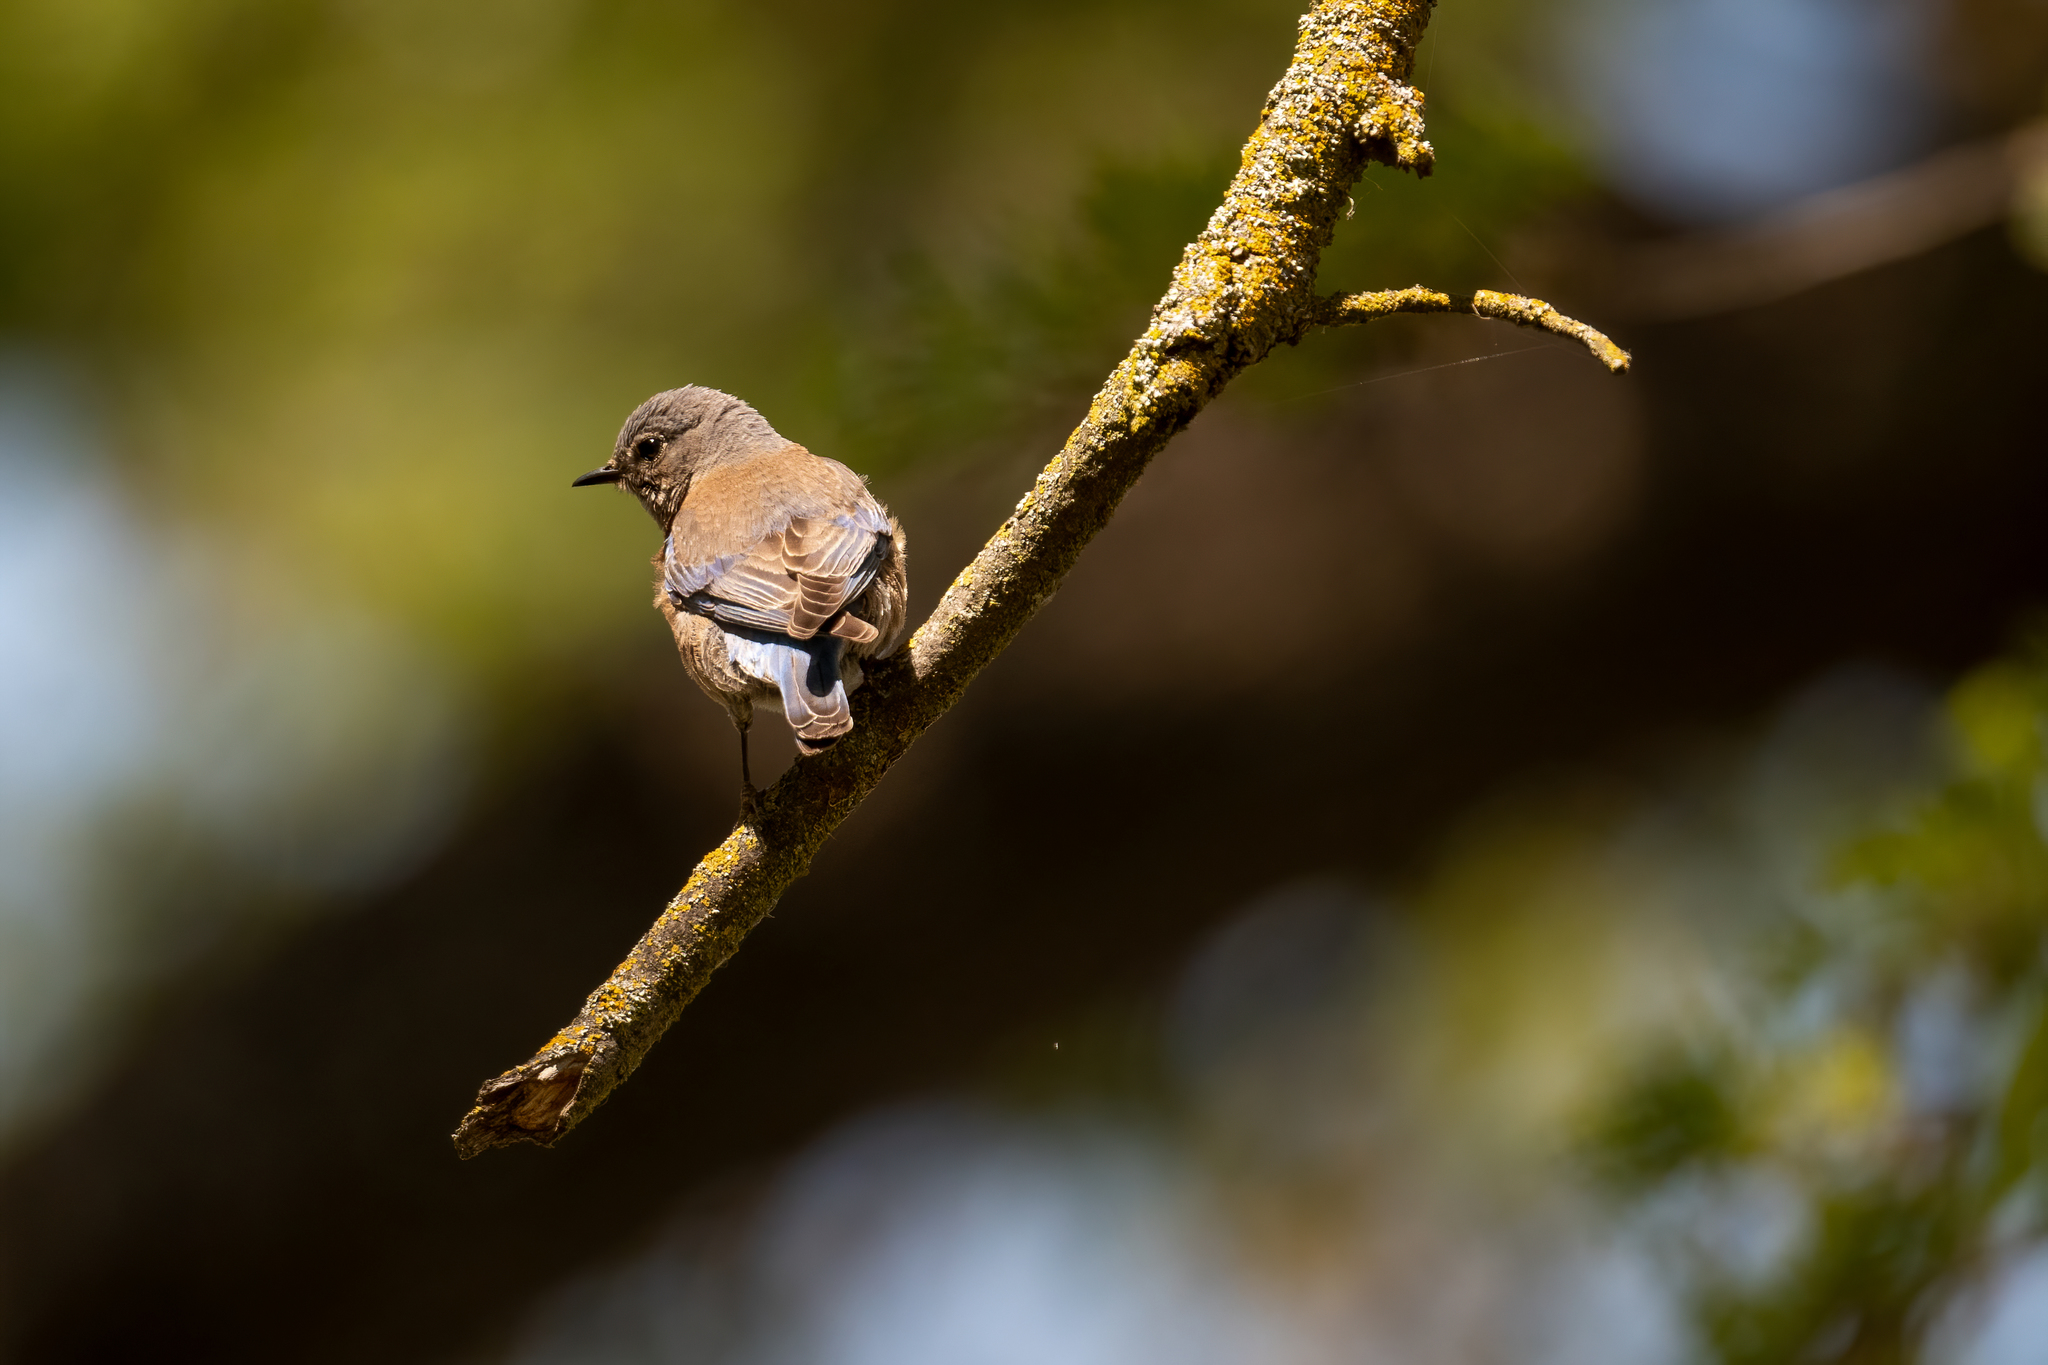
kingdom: Animalia
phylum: Chordata
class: Aves
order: Passeriformes
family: Turdidae
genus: Sialia
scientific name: Sialia mexicana
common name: Western bluebird
